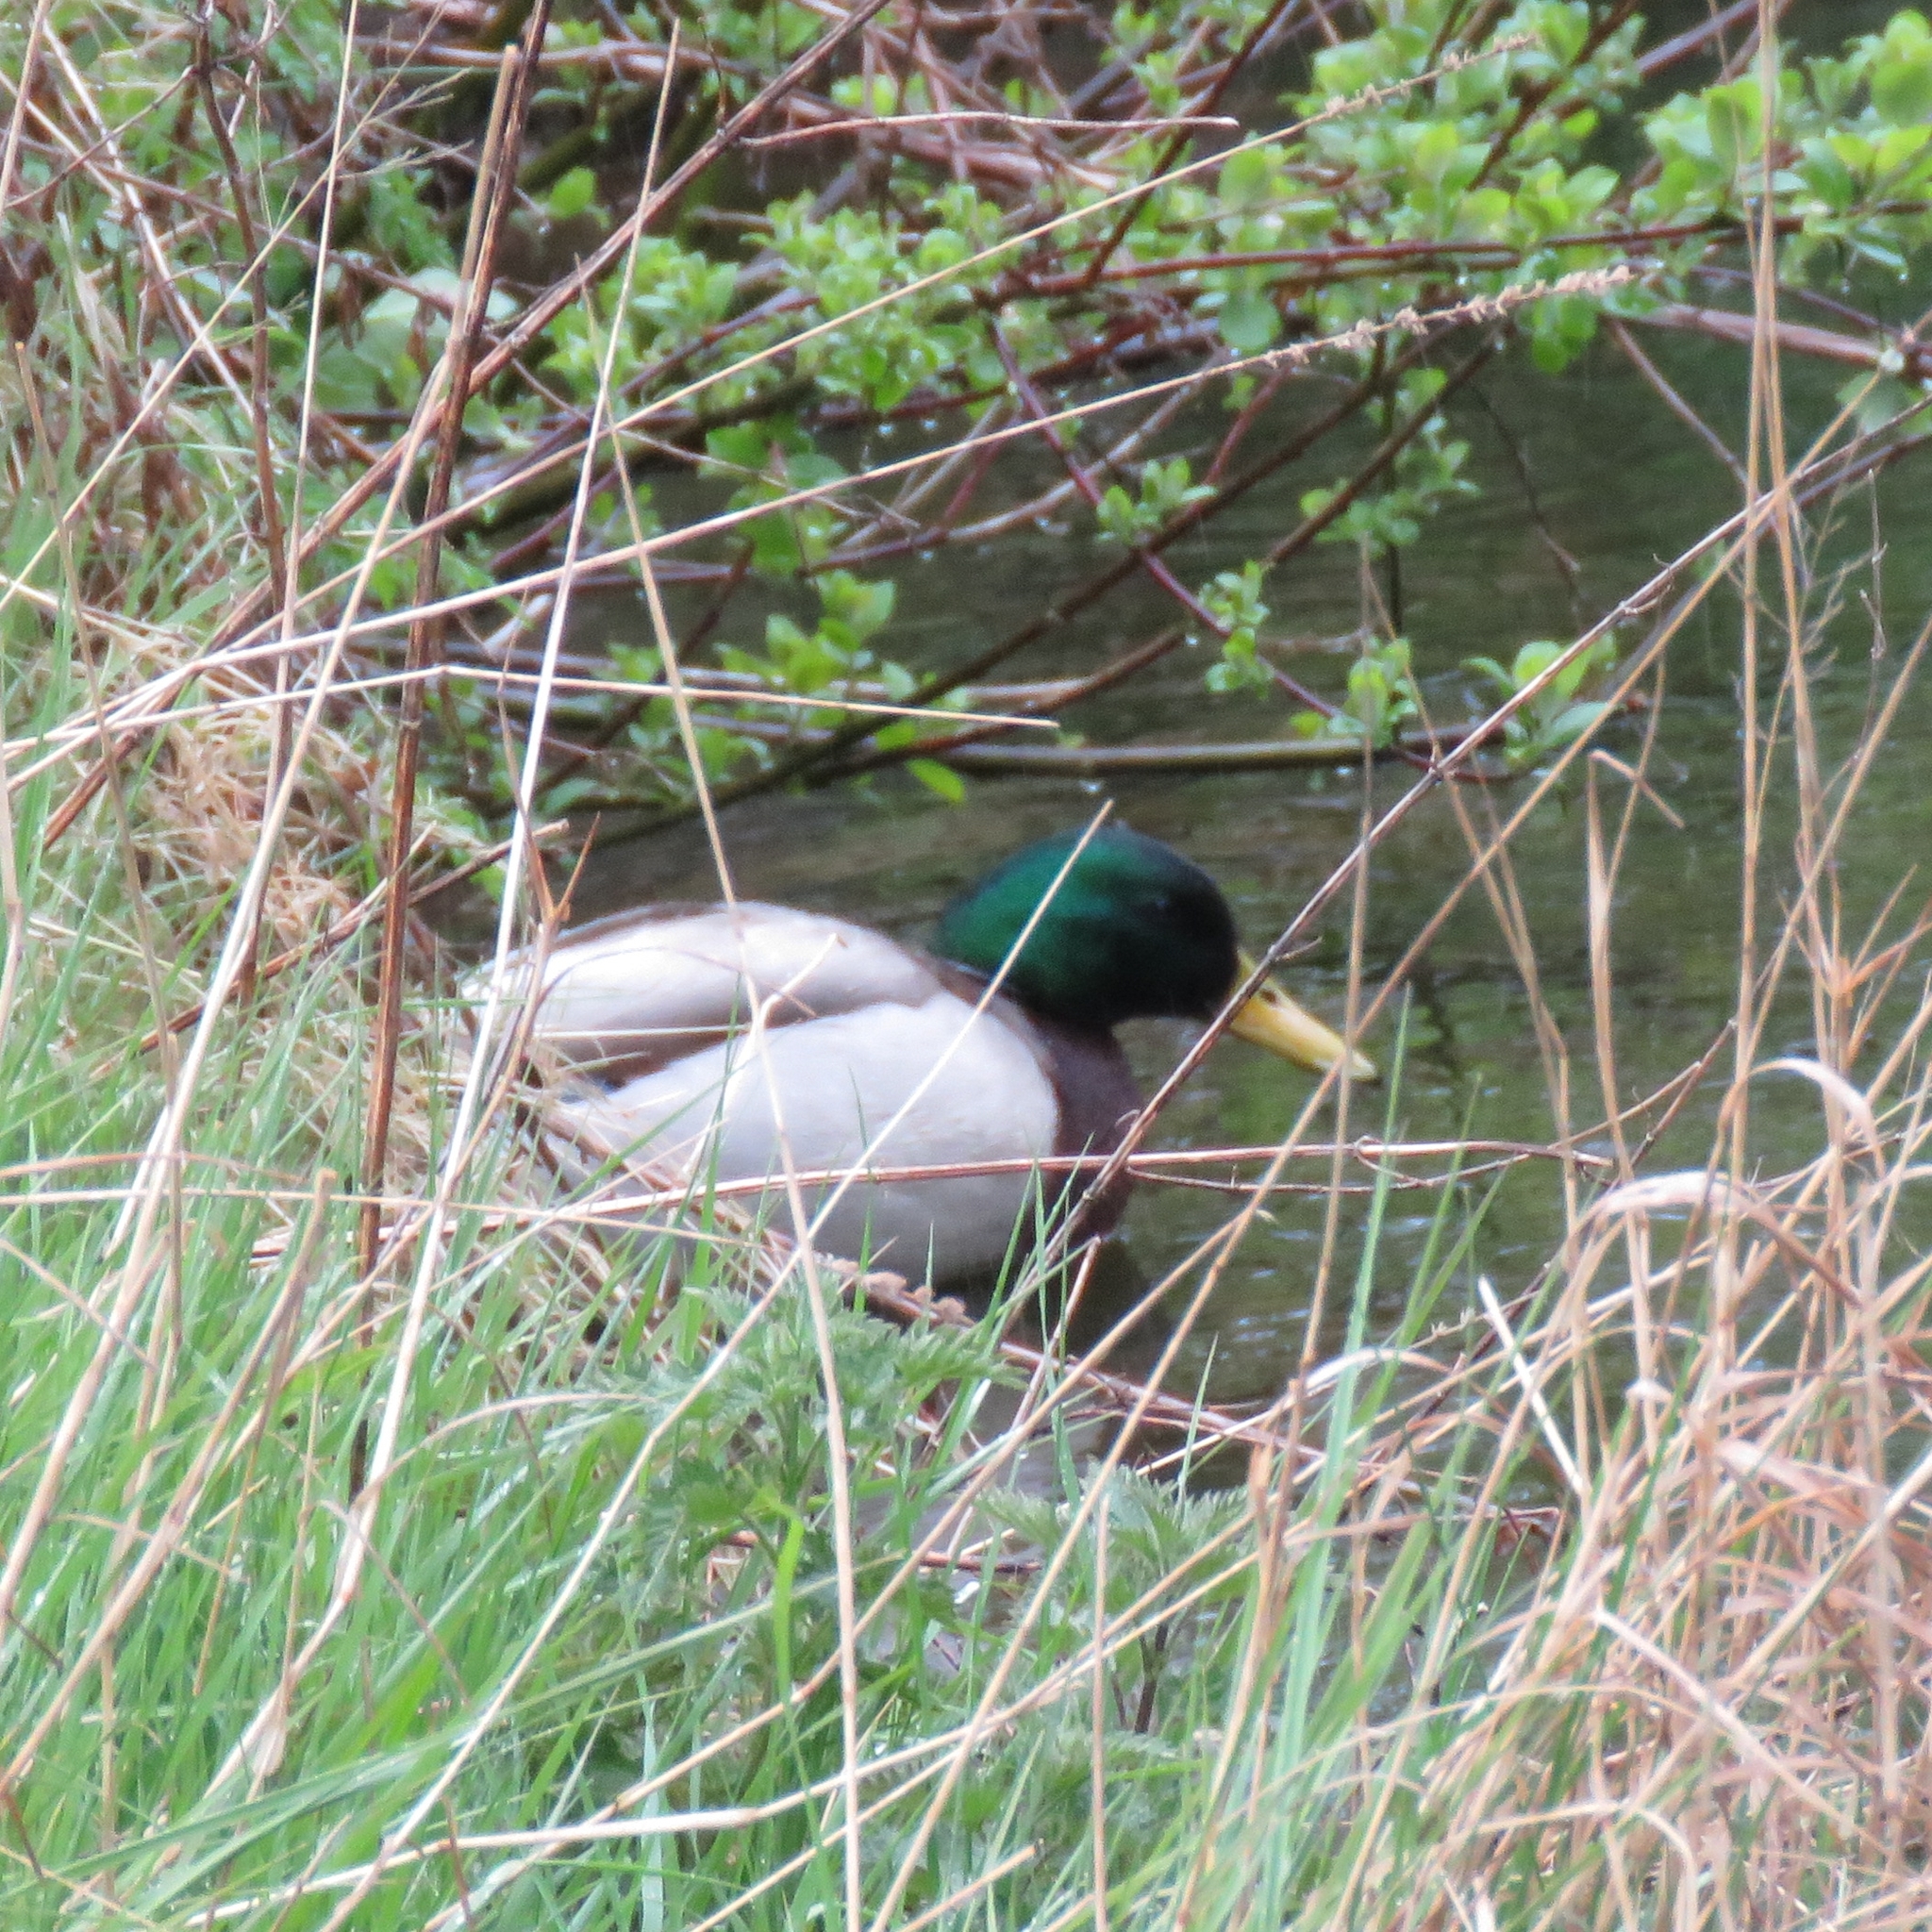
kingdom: Animalia
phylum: Chordata
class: Aves
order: Anseriformes
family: Anatidae
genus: Anas
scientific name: Anas platyrhynchos
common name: Mallard
